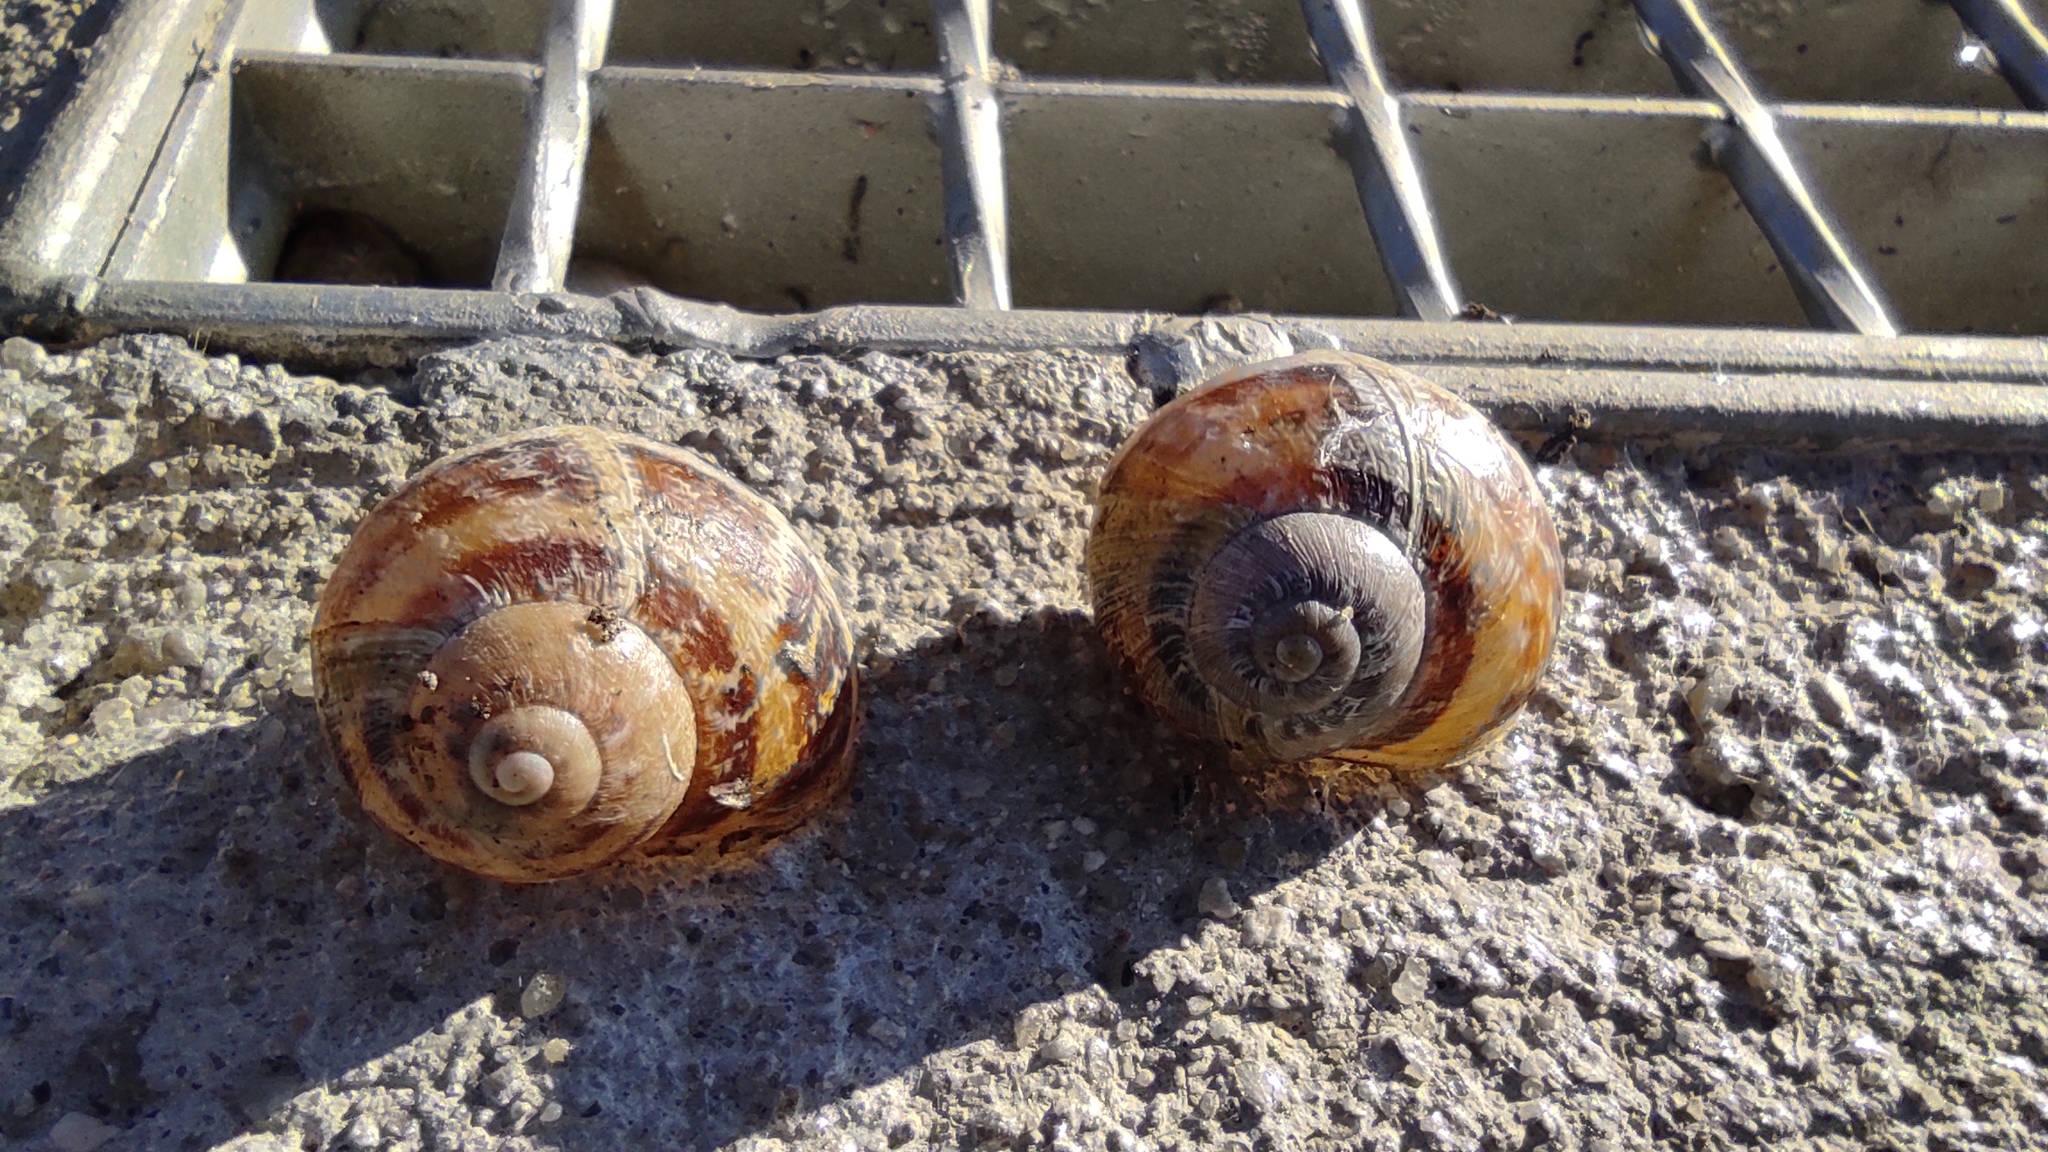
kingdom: Animalia
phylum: Mollusca
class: Gastropoda
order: Stylommatophora
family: Helicidae
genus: Cornu
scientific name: Cornu aspersum
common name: Brown garden snail
